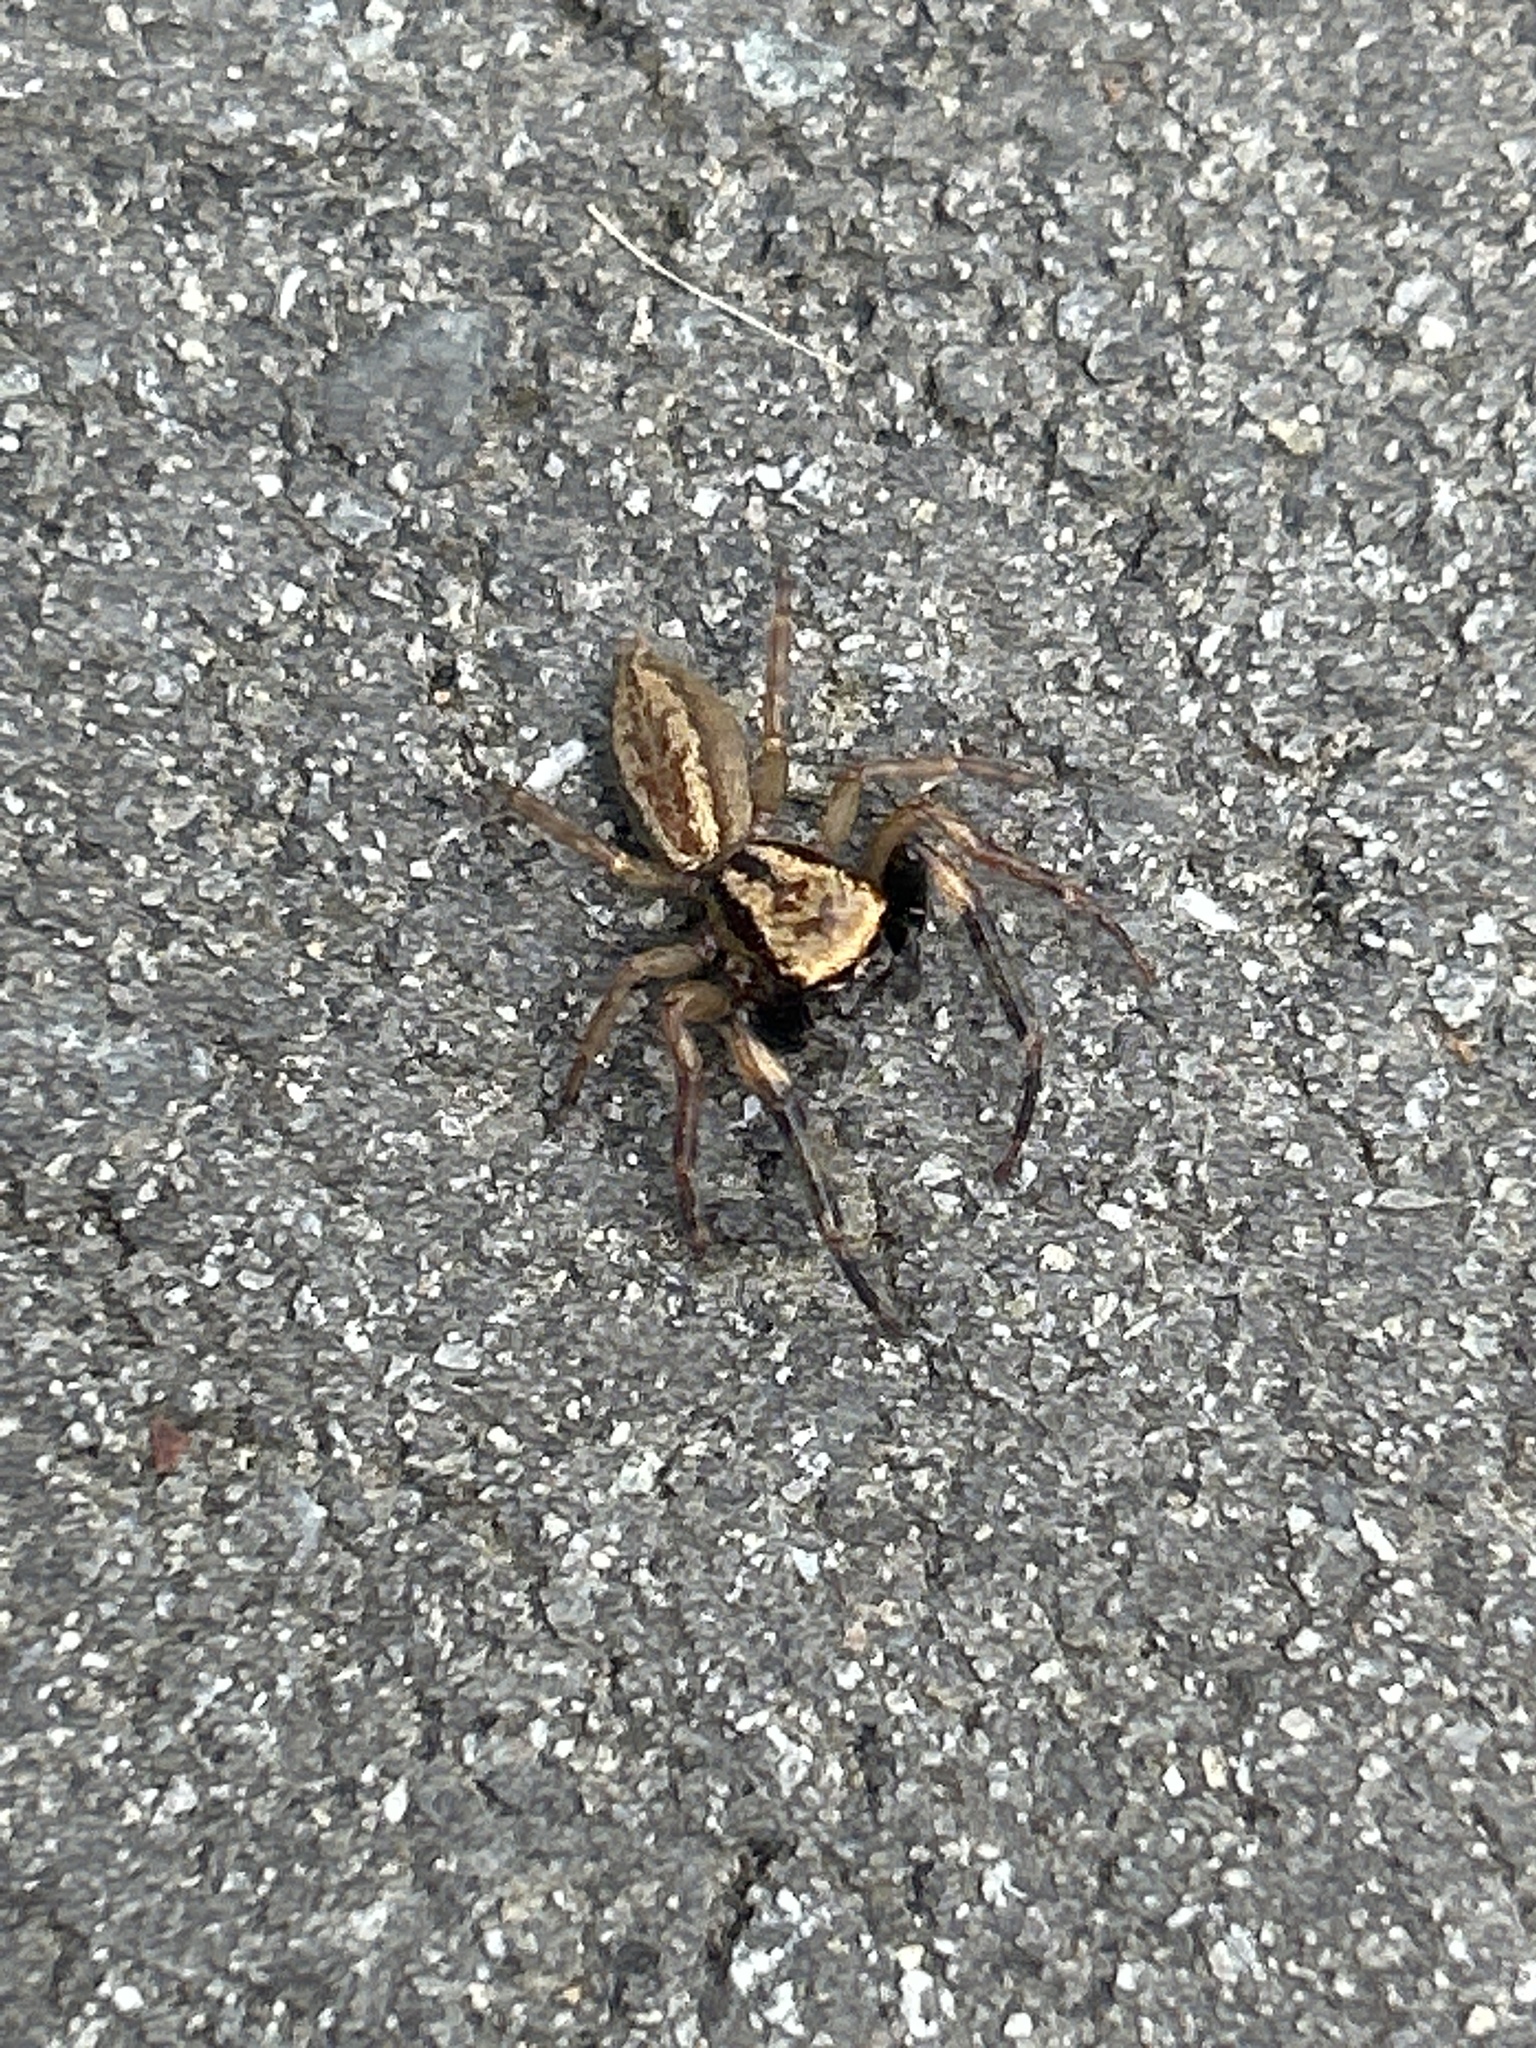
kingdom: Animalia
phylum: Arthropoda
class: Arachnida
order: Araneae
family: Salticidae
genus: Trite
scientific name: Trite auricoma
